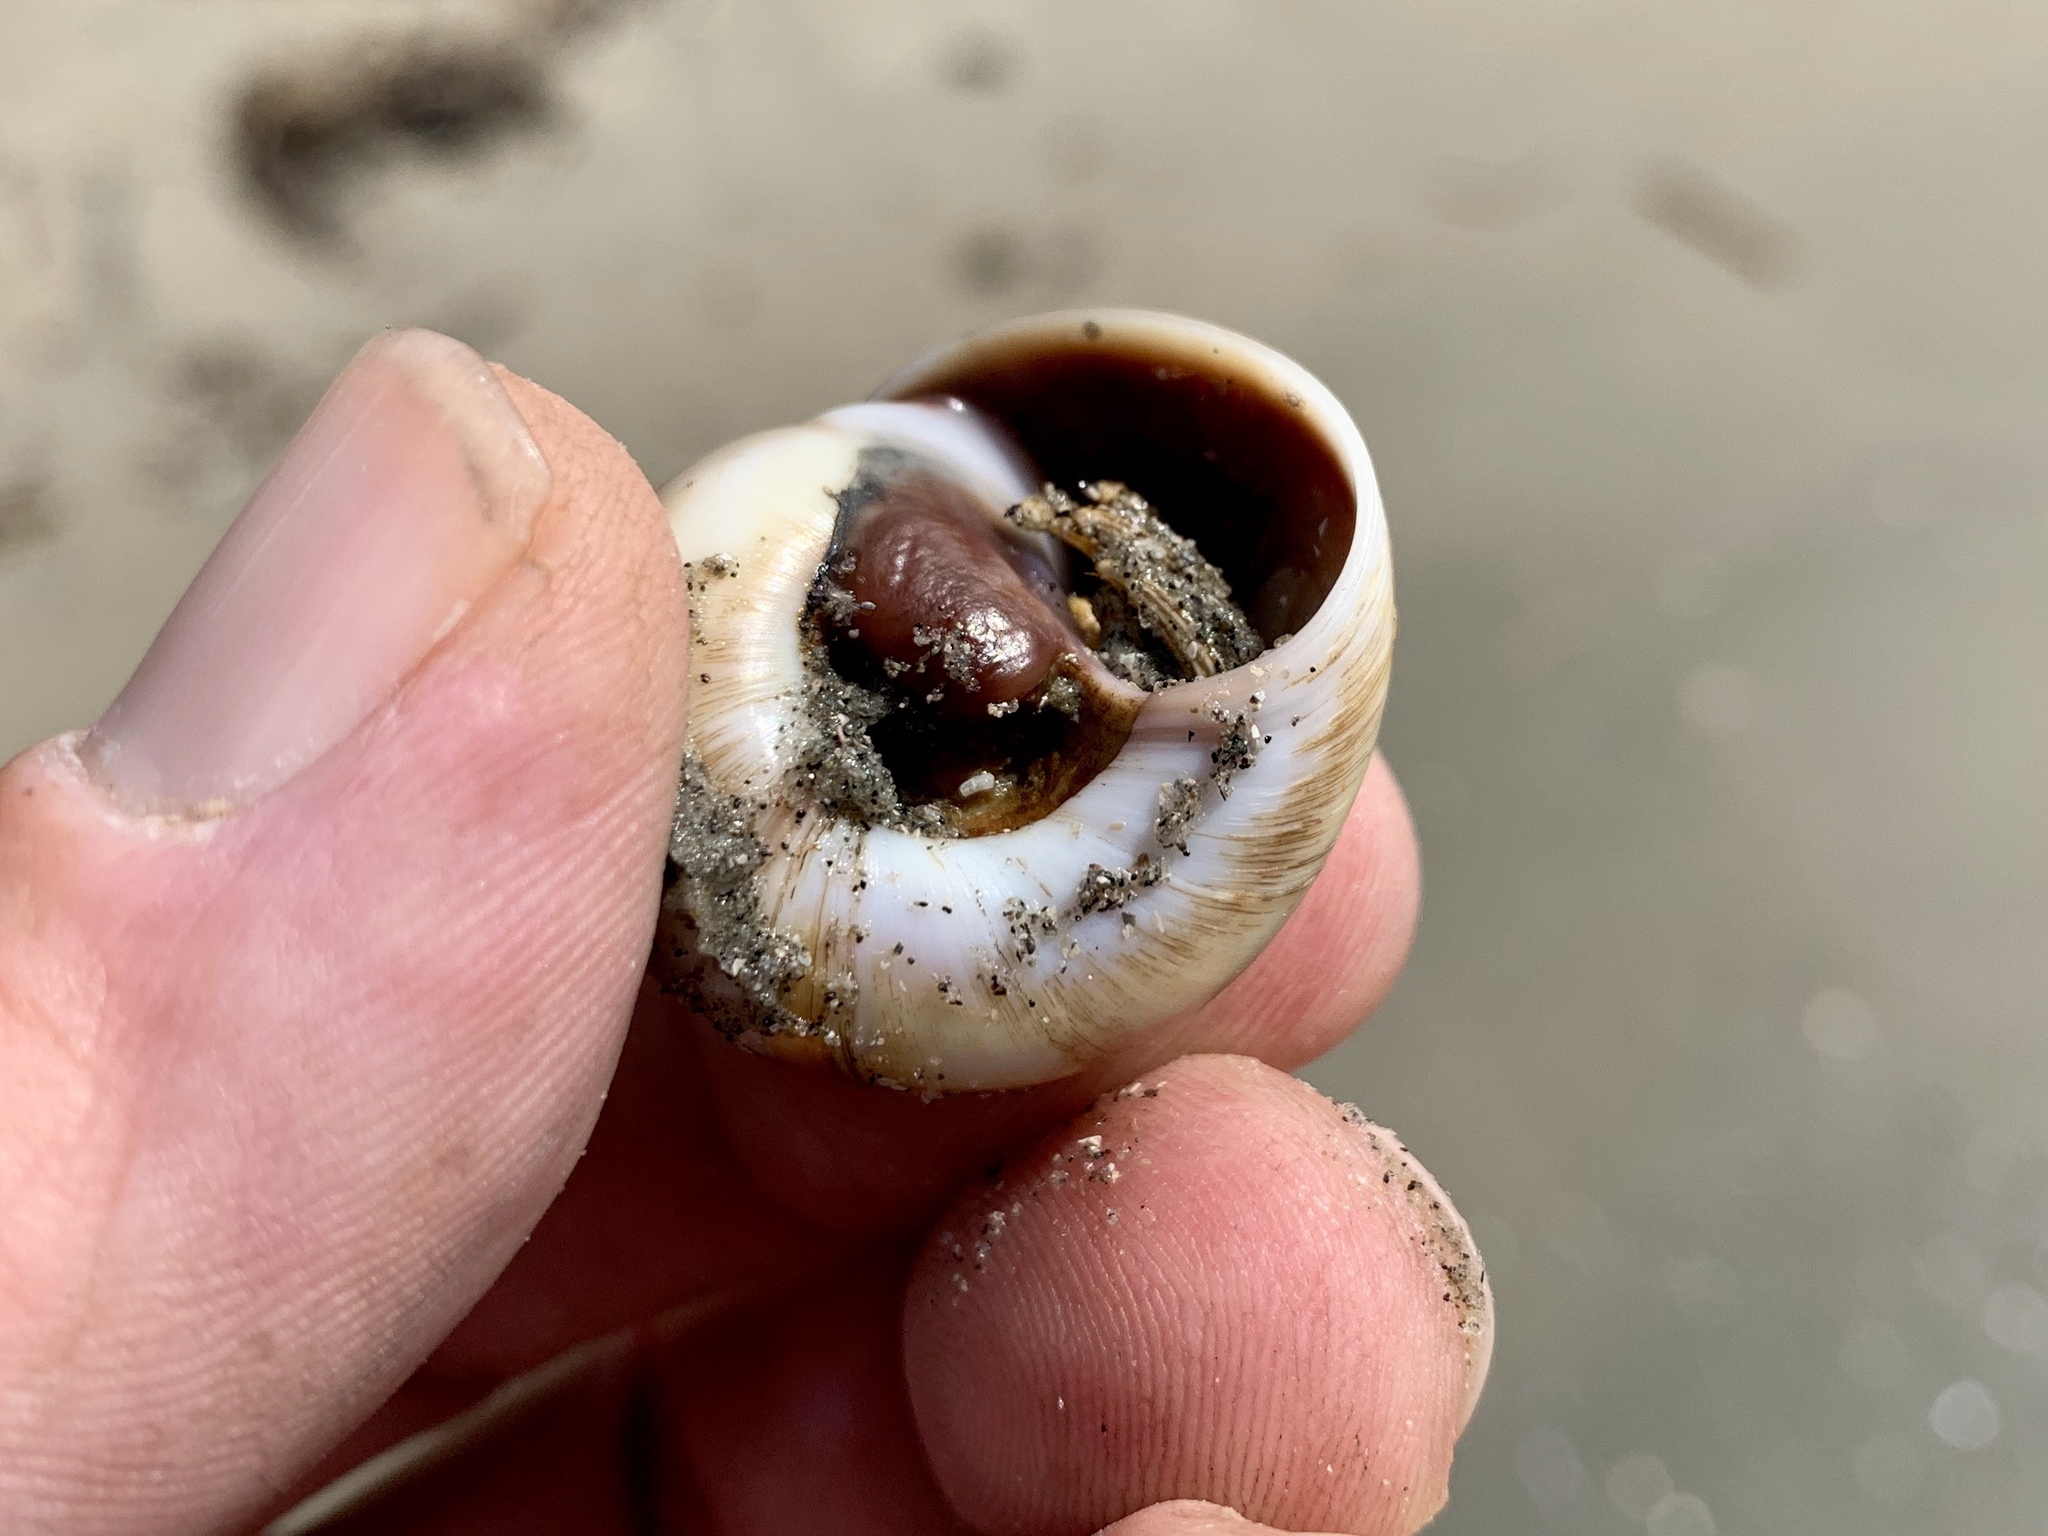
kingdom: Animalia
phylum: Arthropoda
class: Malacostraca
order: Decapoda
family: Diogenidae
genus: Clibanarius
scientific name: Clibanarius vittatus
